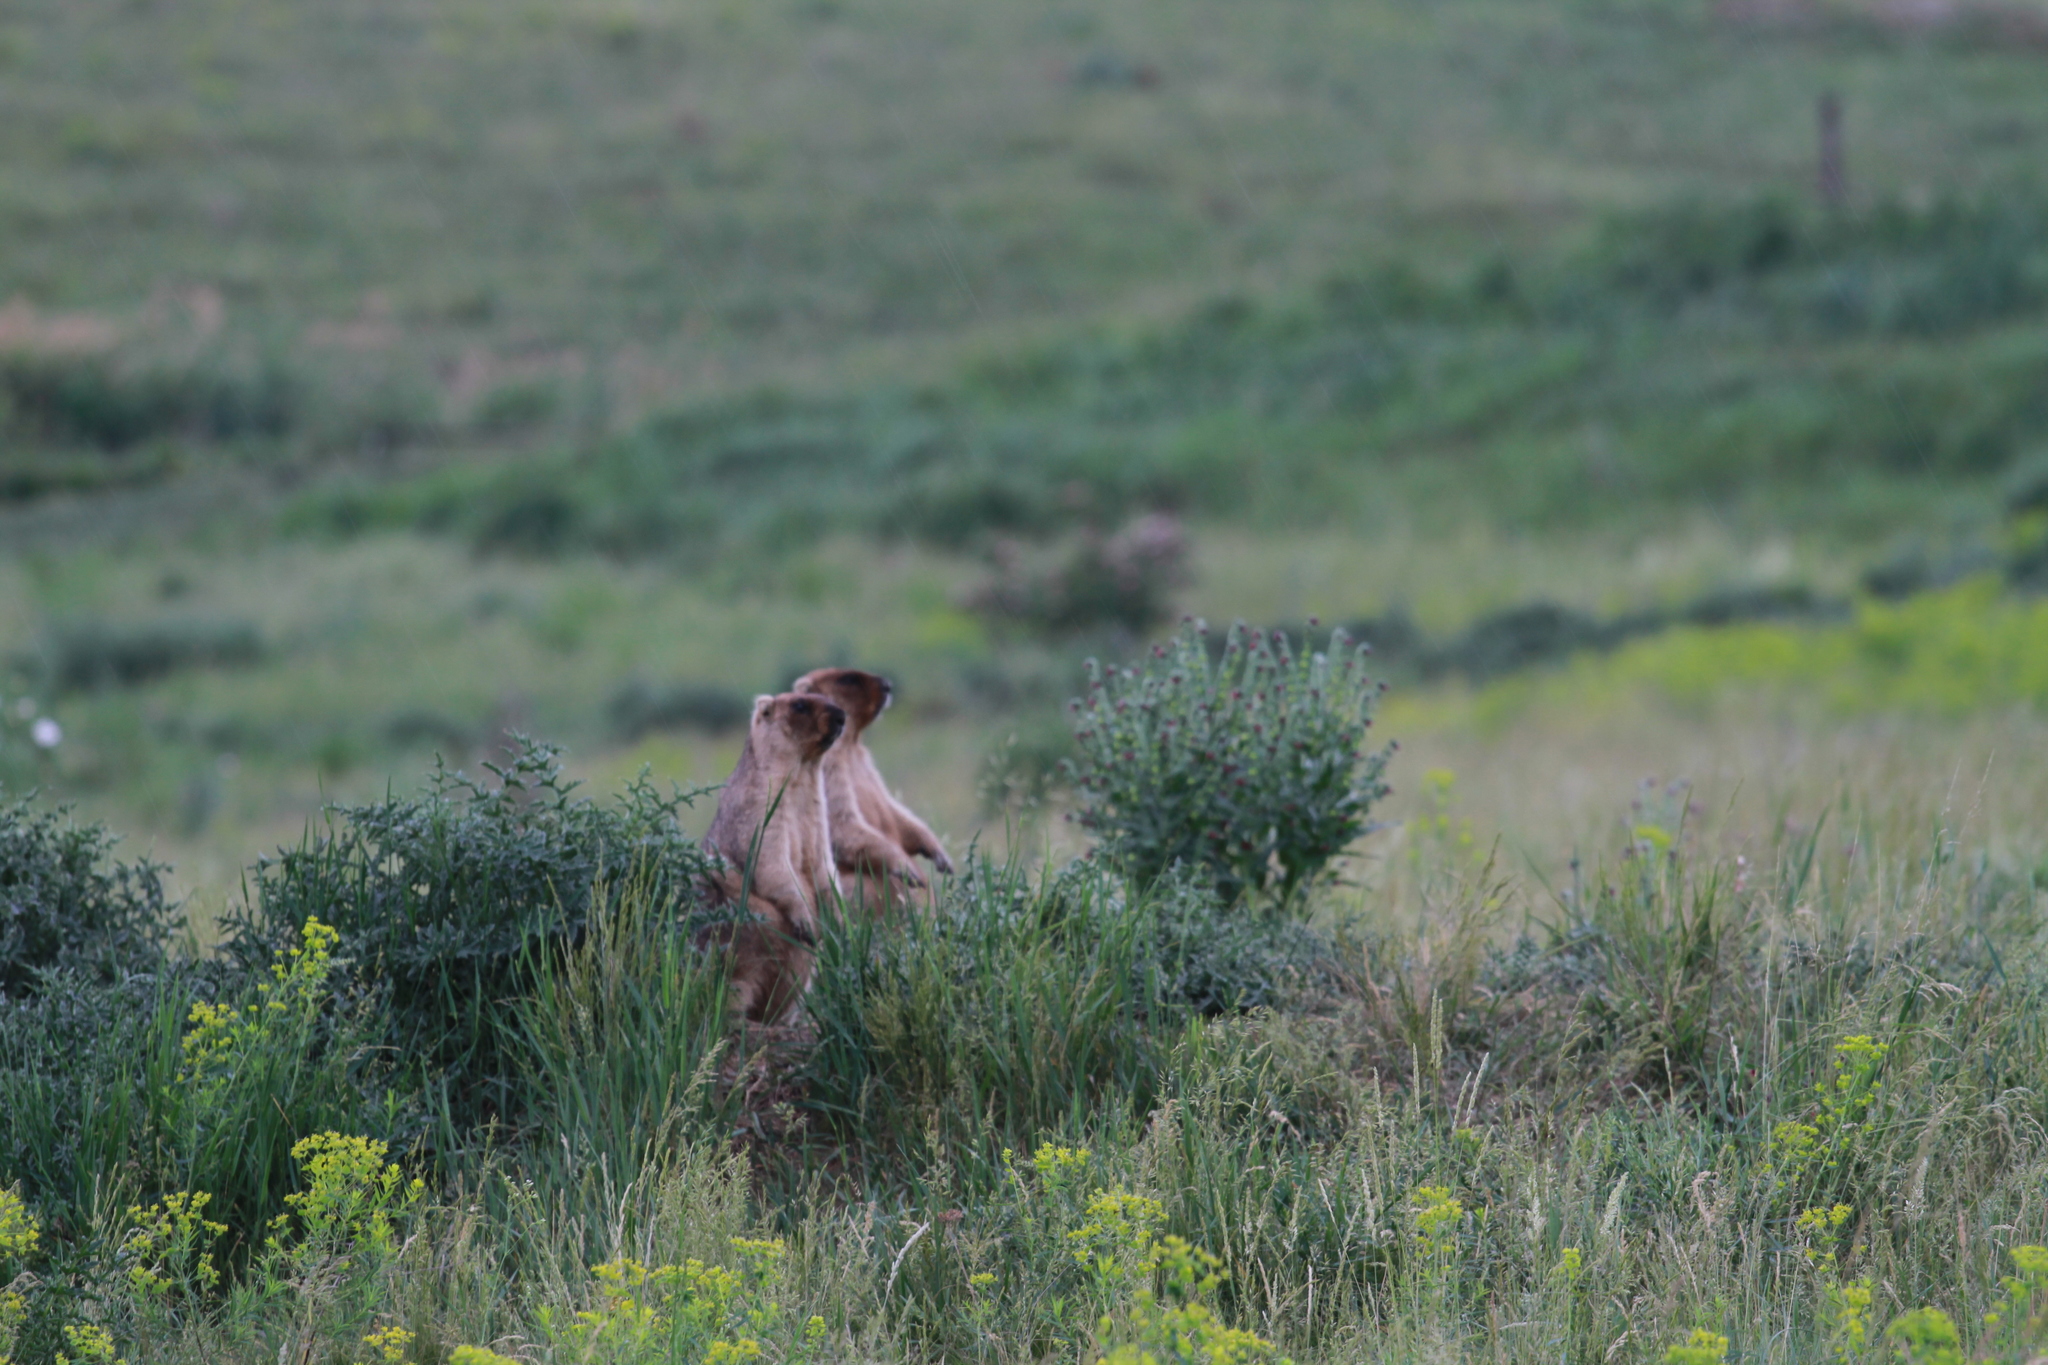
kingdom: Animalia
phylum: Chordata
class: Mammalia
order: Rodentia
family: Sciuridae
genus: Marmota
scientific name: Marmota bobak
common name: Bobak marmot
